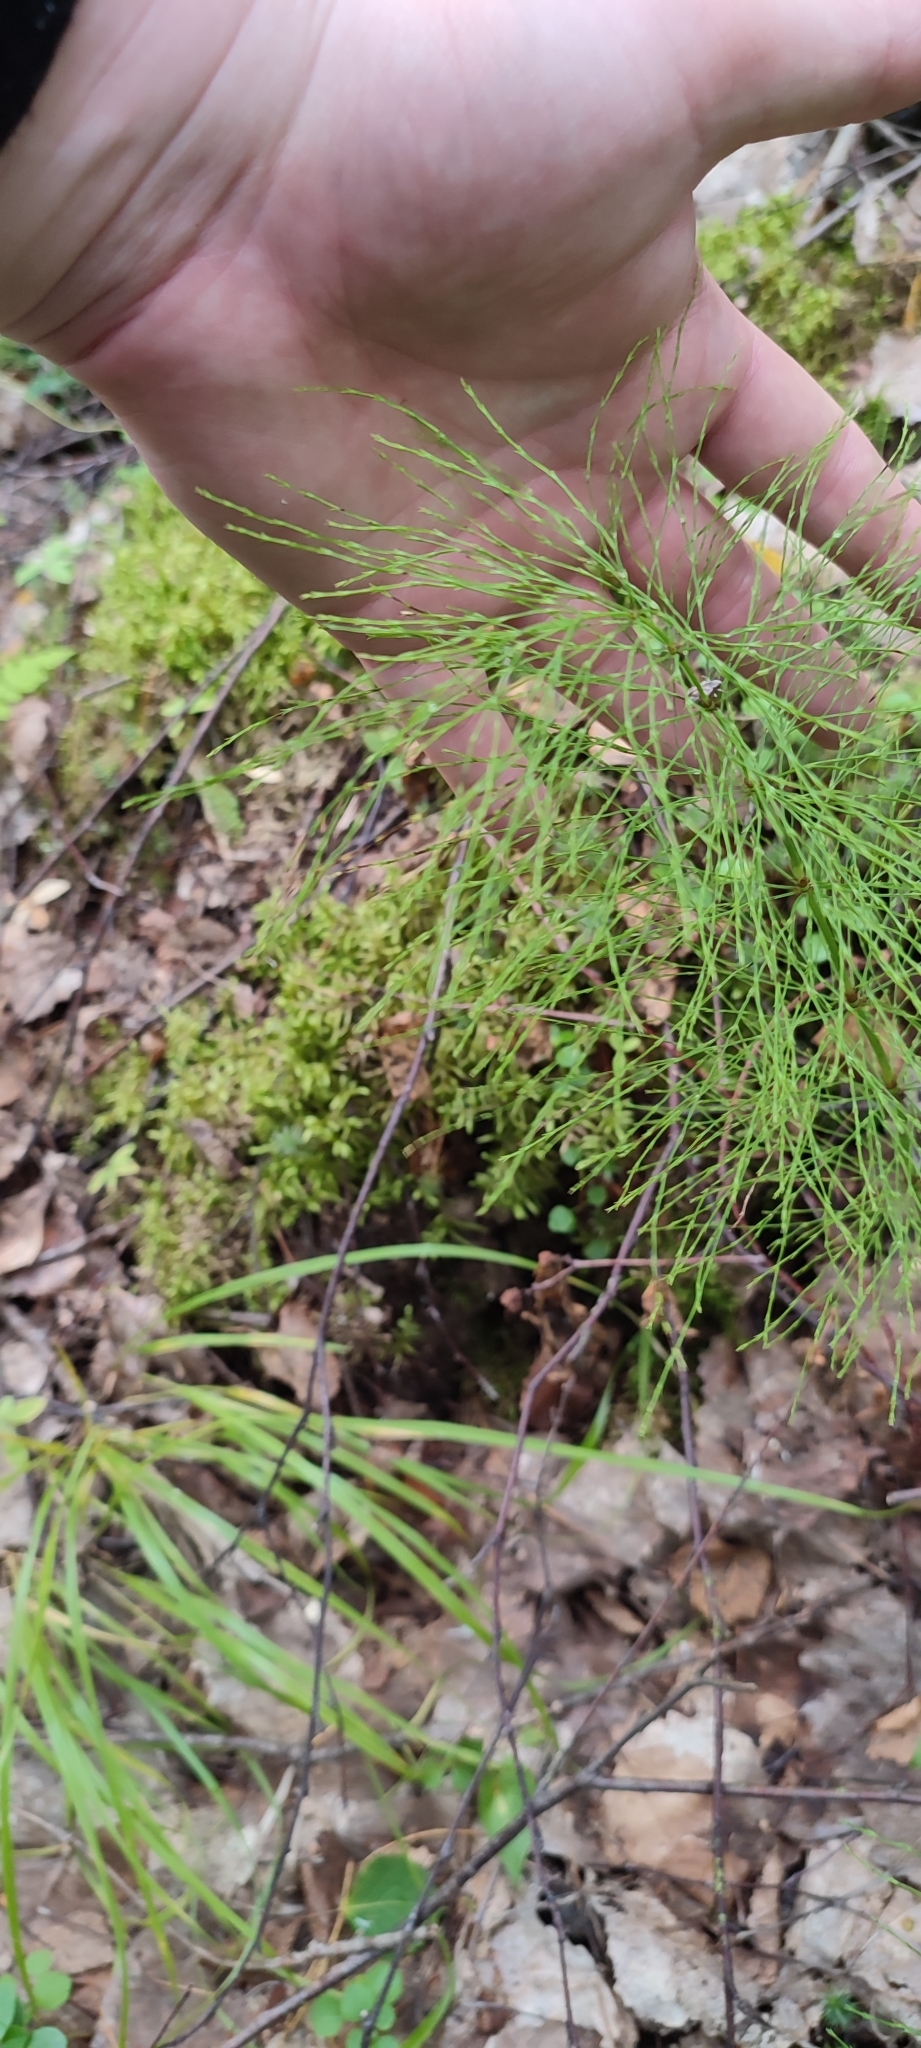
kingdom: Plantae
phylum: Tracheophyta
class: Polypodiopsida
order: Equisetales
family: Equisetaceae
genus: Equisetum
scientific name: Equisetum sylvaticum
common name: Wood horsetail
